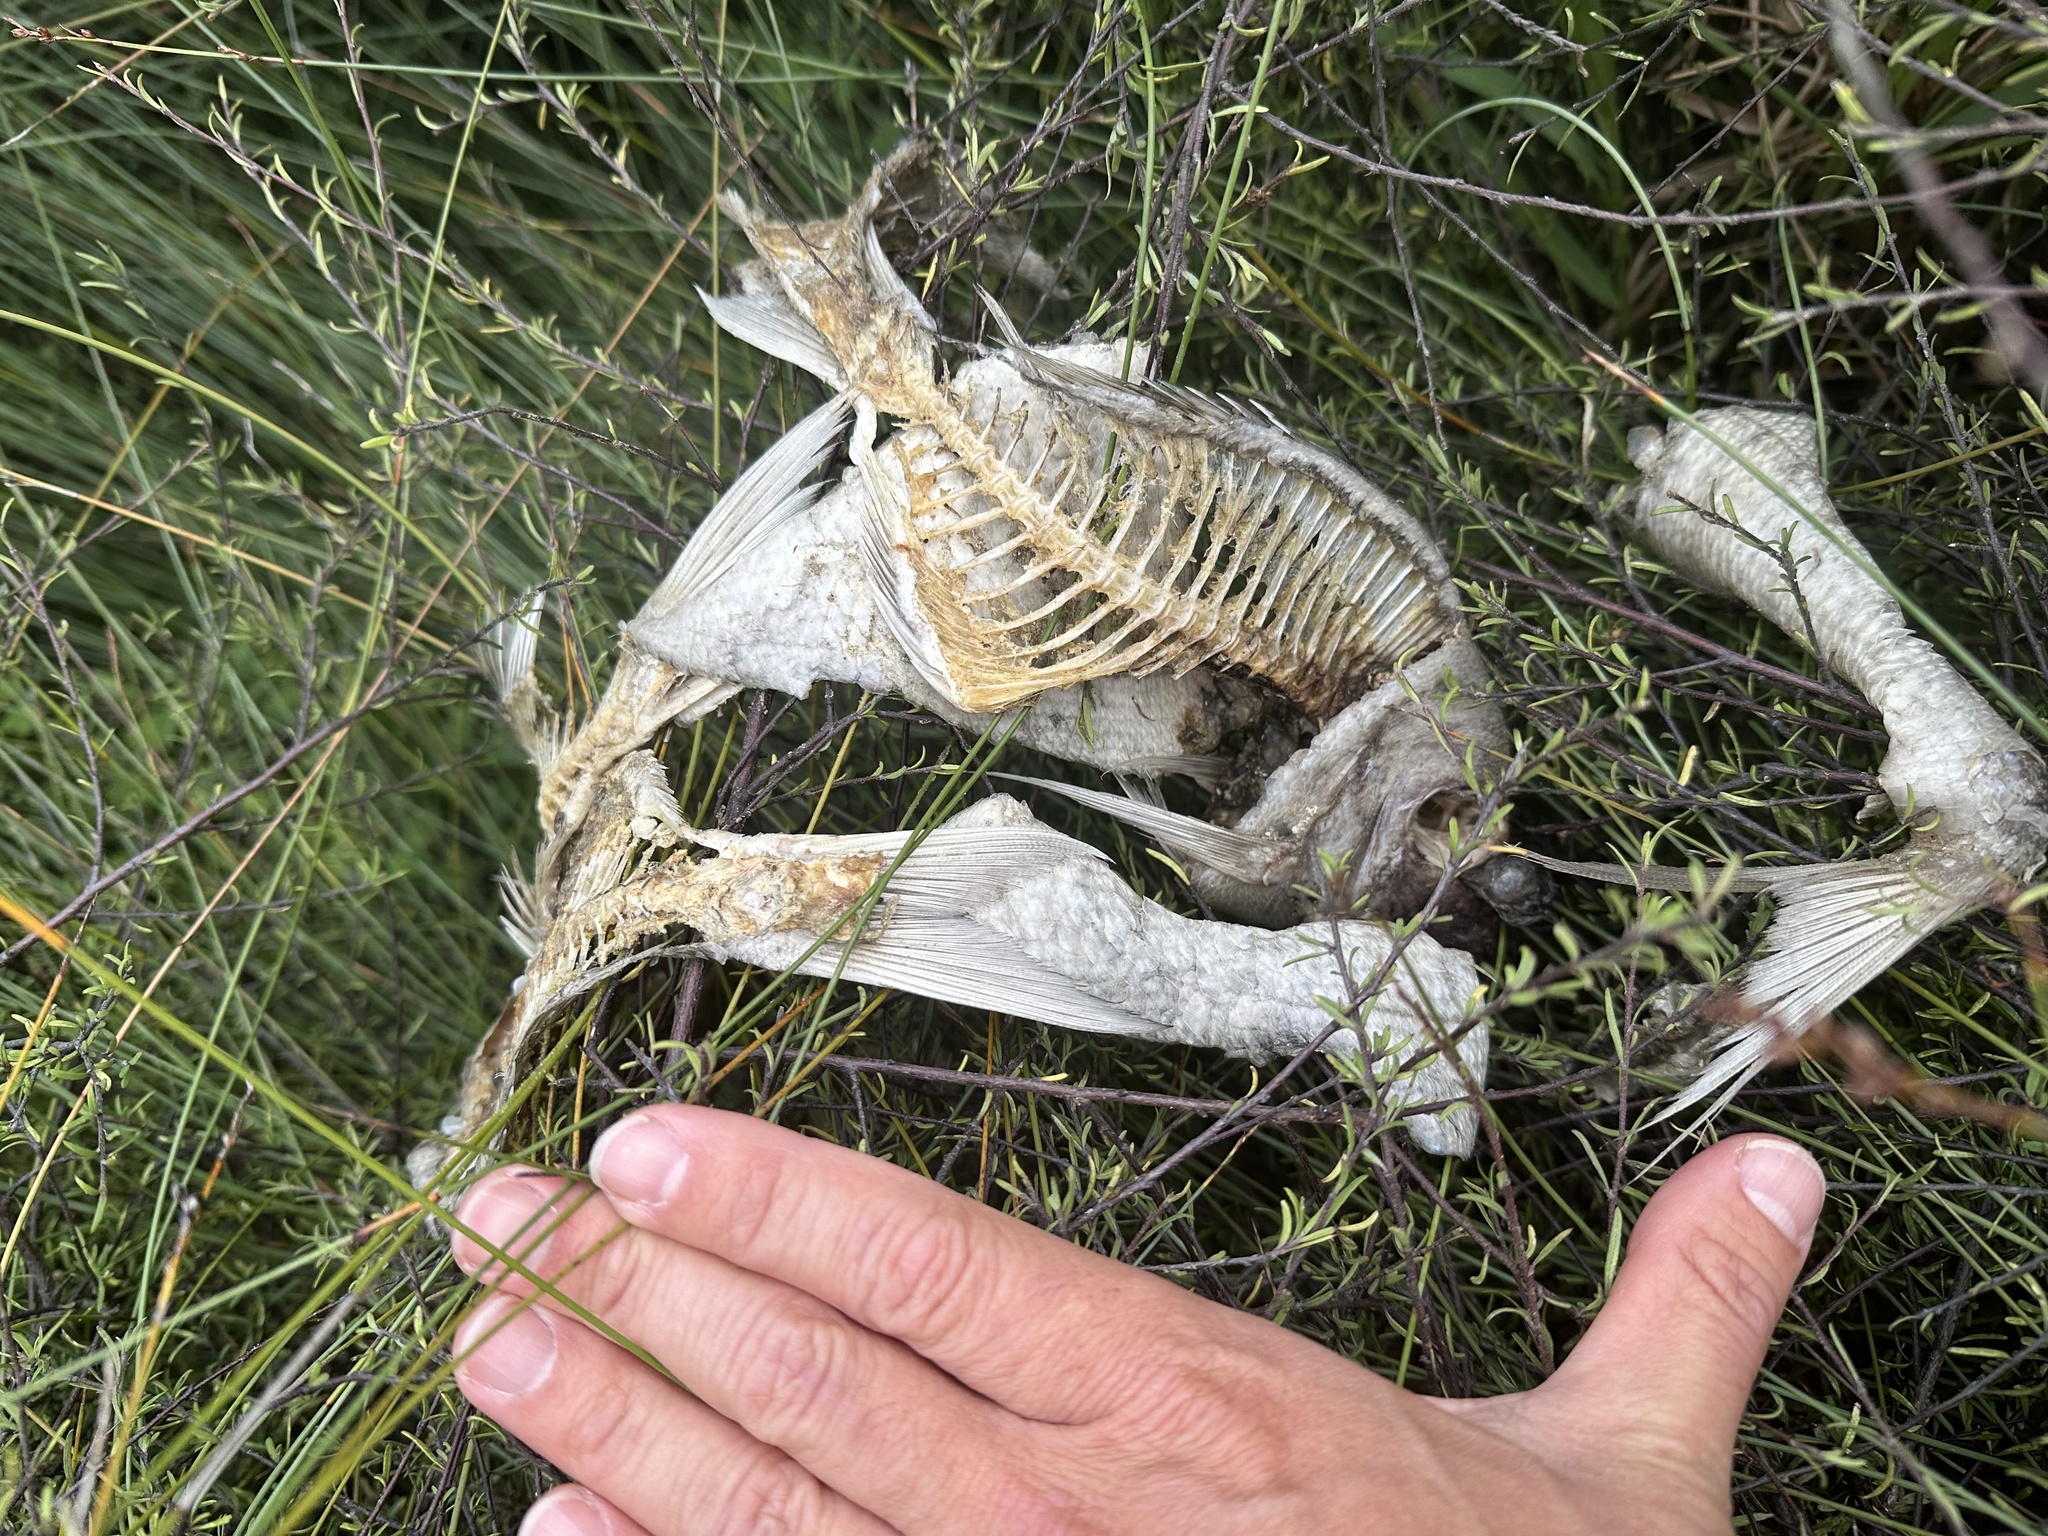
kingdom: Animalia
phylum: Chordata
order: Perciformes
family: Sparidae
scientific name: Sparidae
